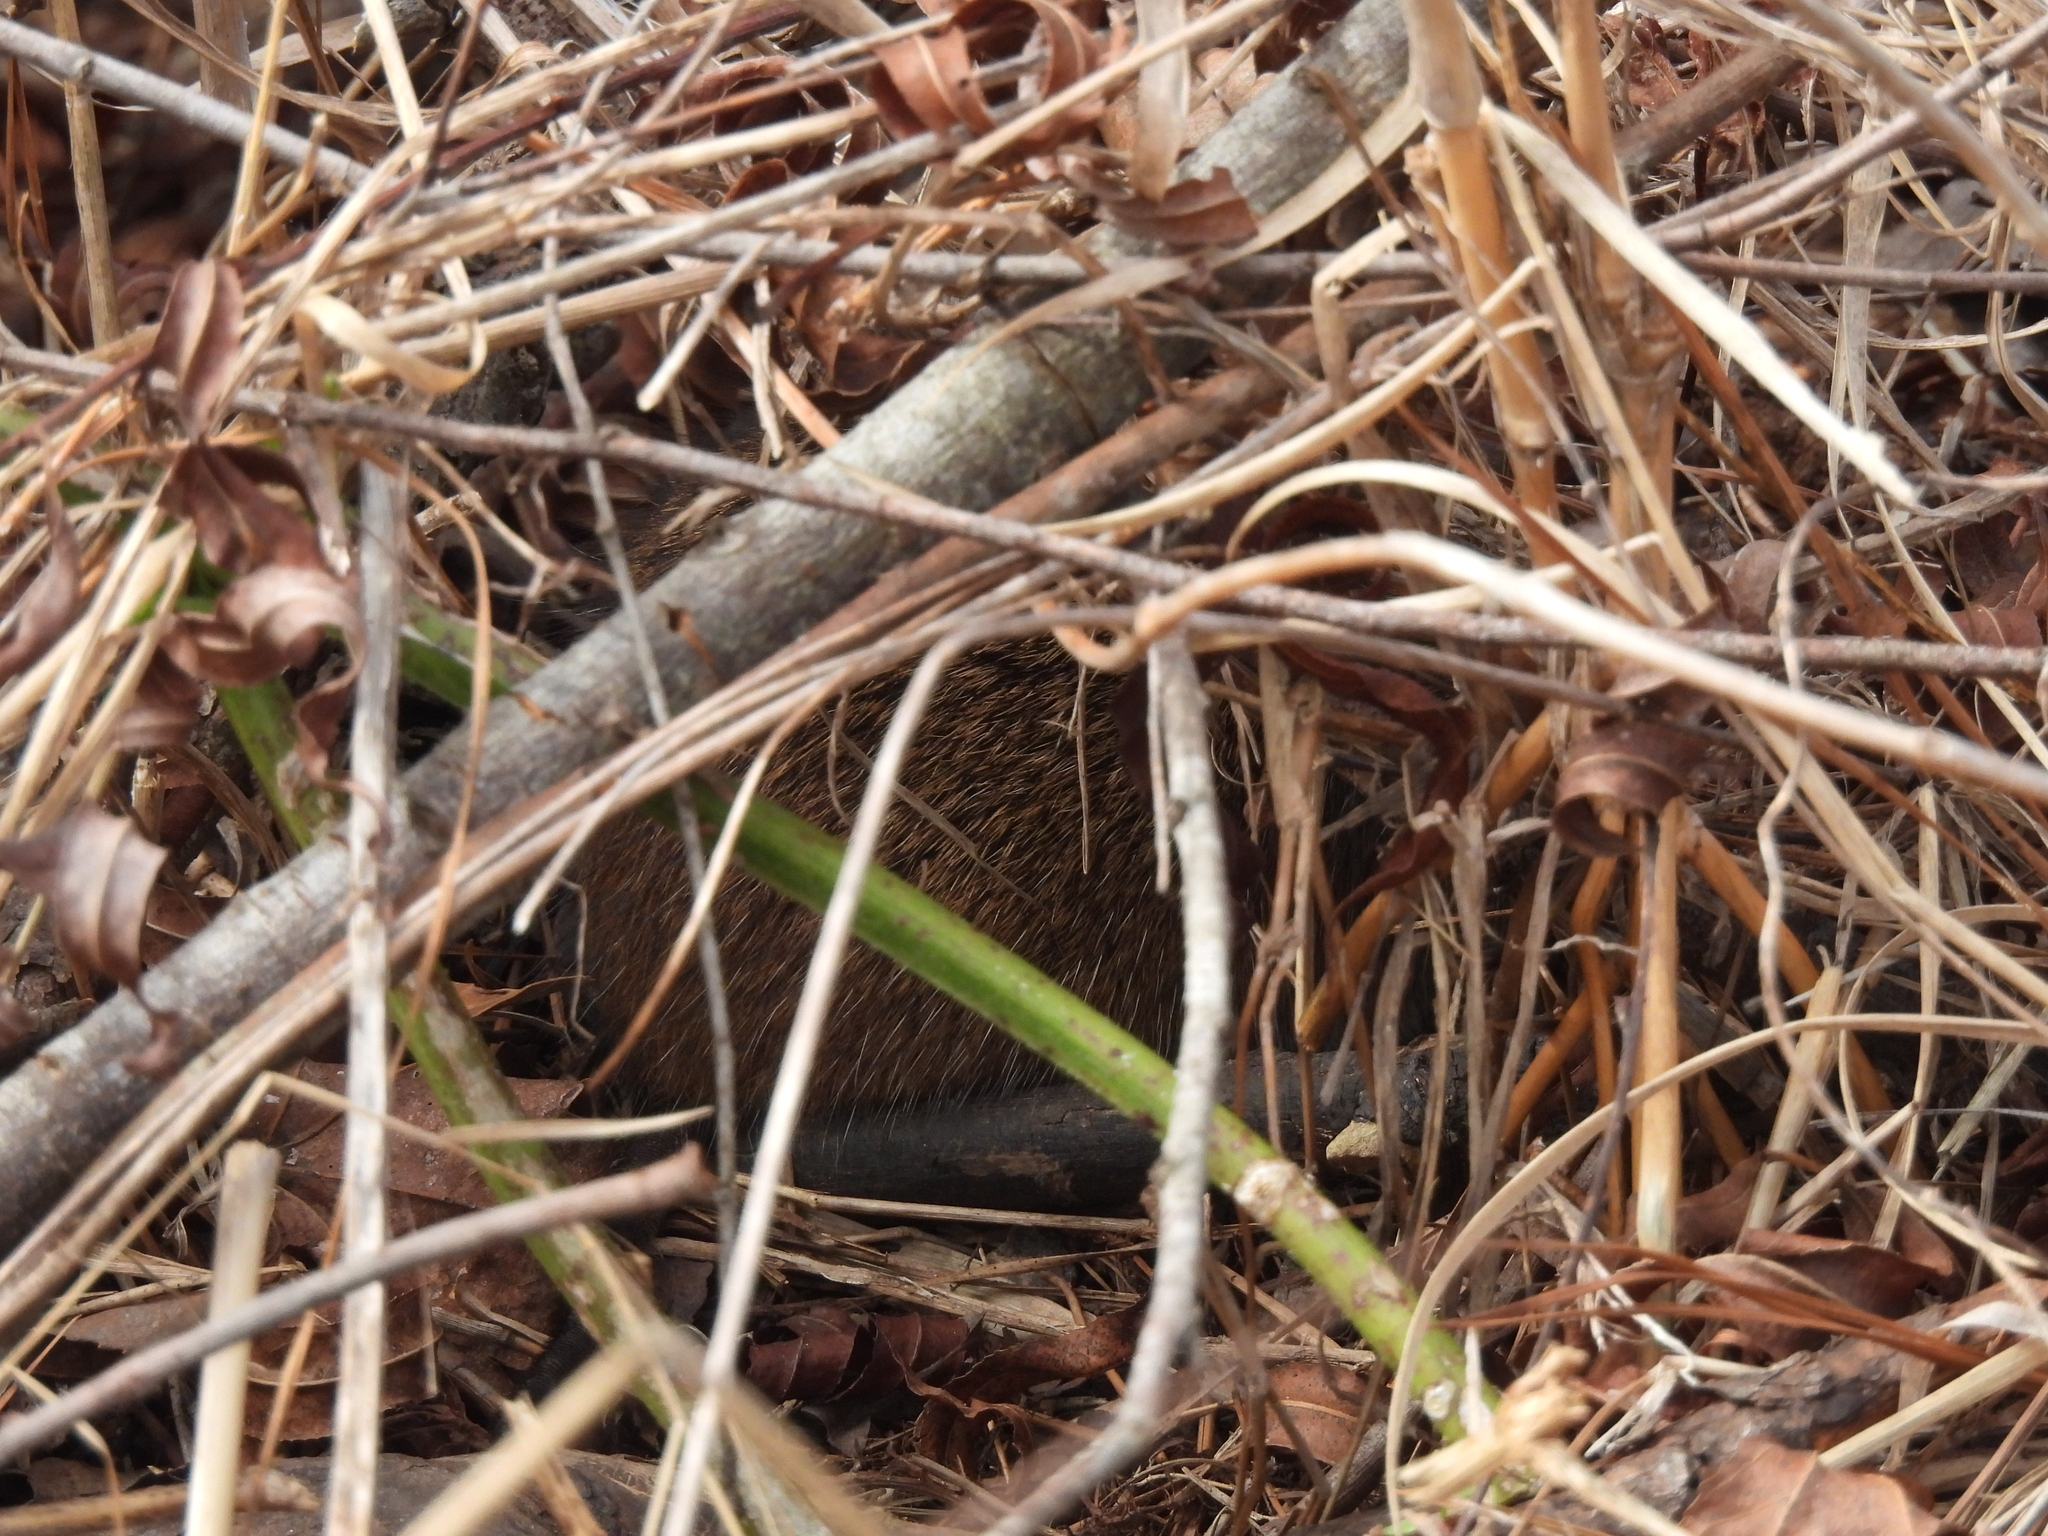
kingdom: Animalia
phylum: Chordata
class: Mammalia
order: Rodentia
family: Cricetidae
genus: Sigmodon
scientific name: Sigmodon hispidus
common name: Hispid cotton rat
